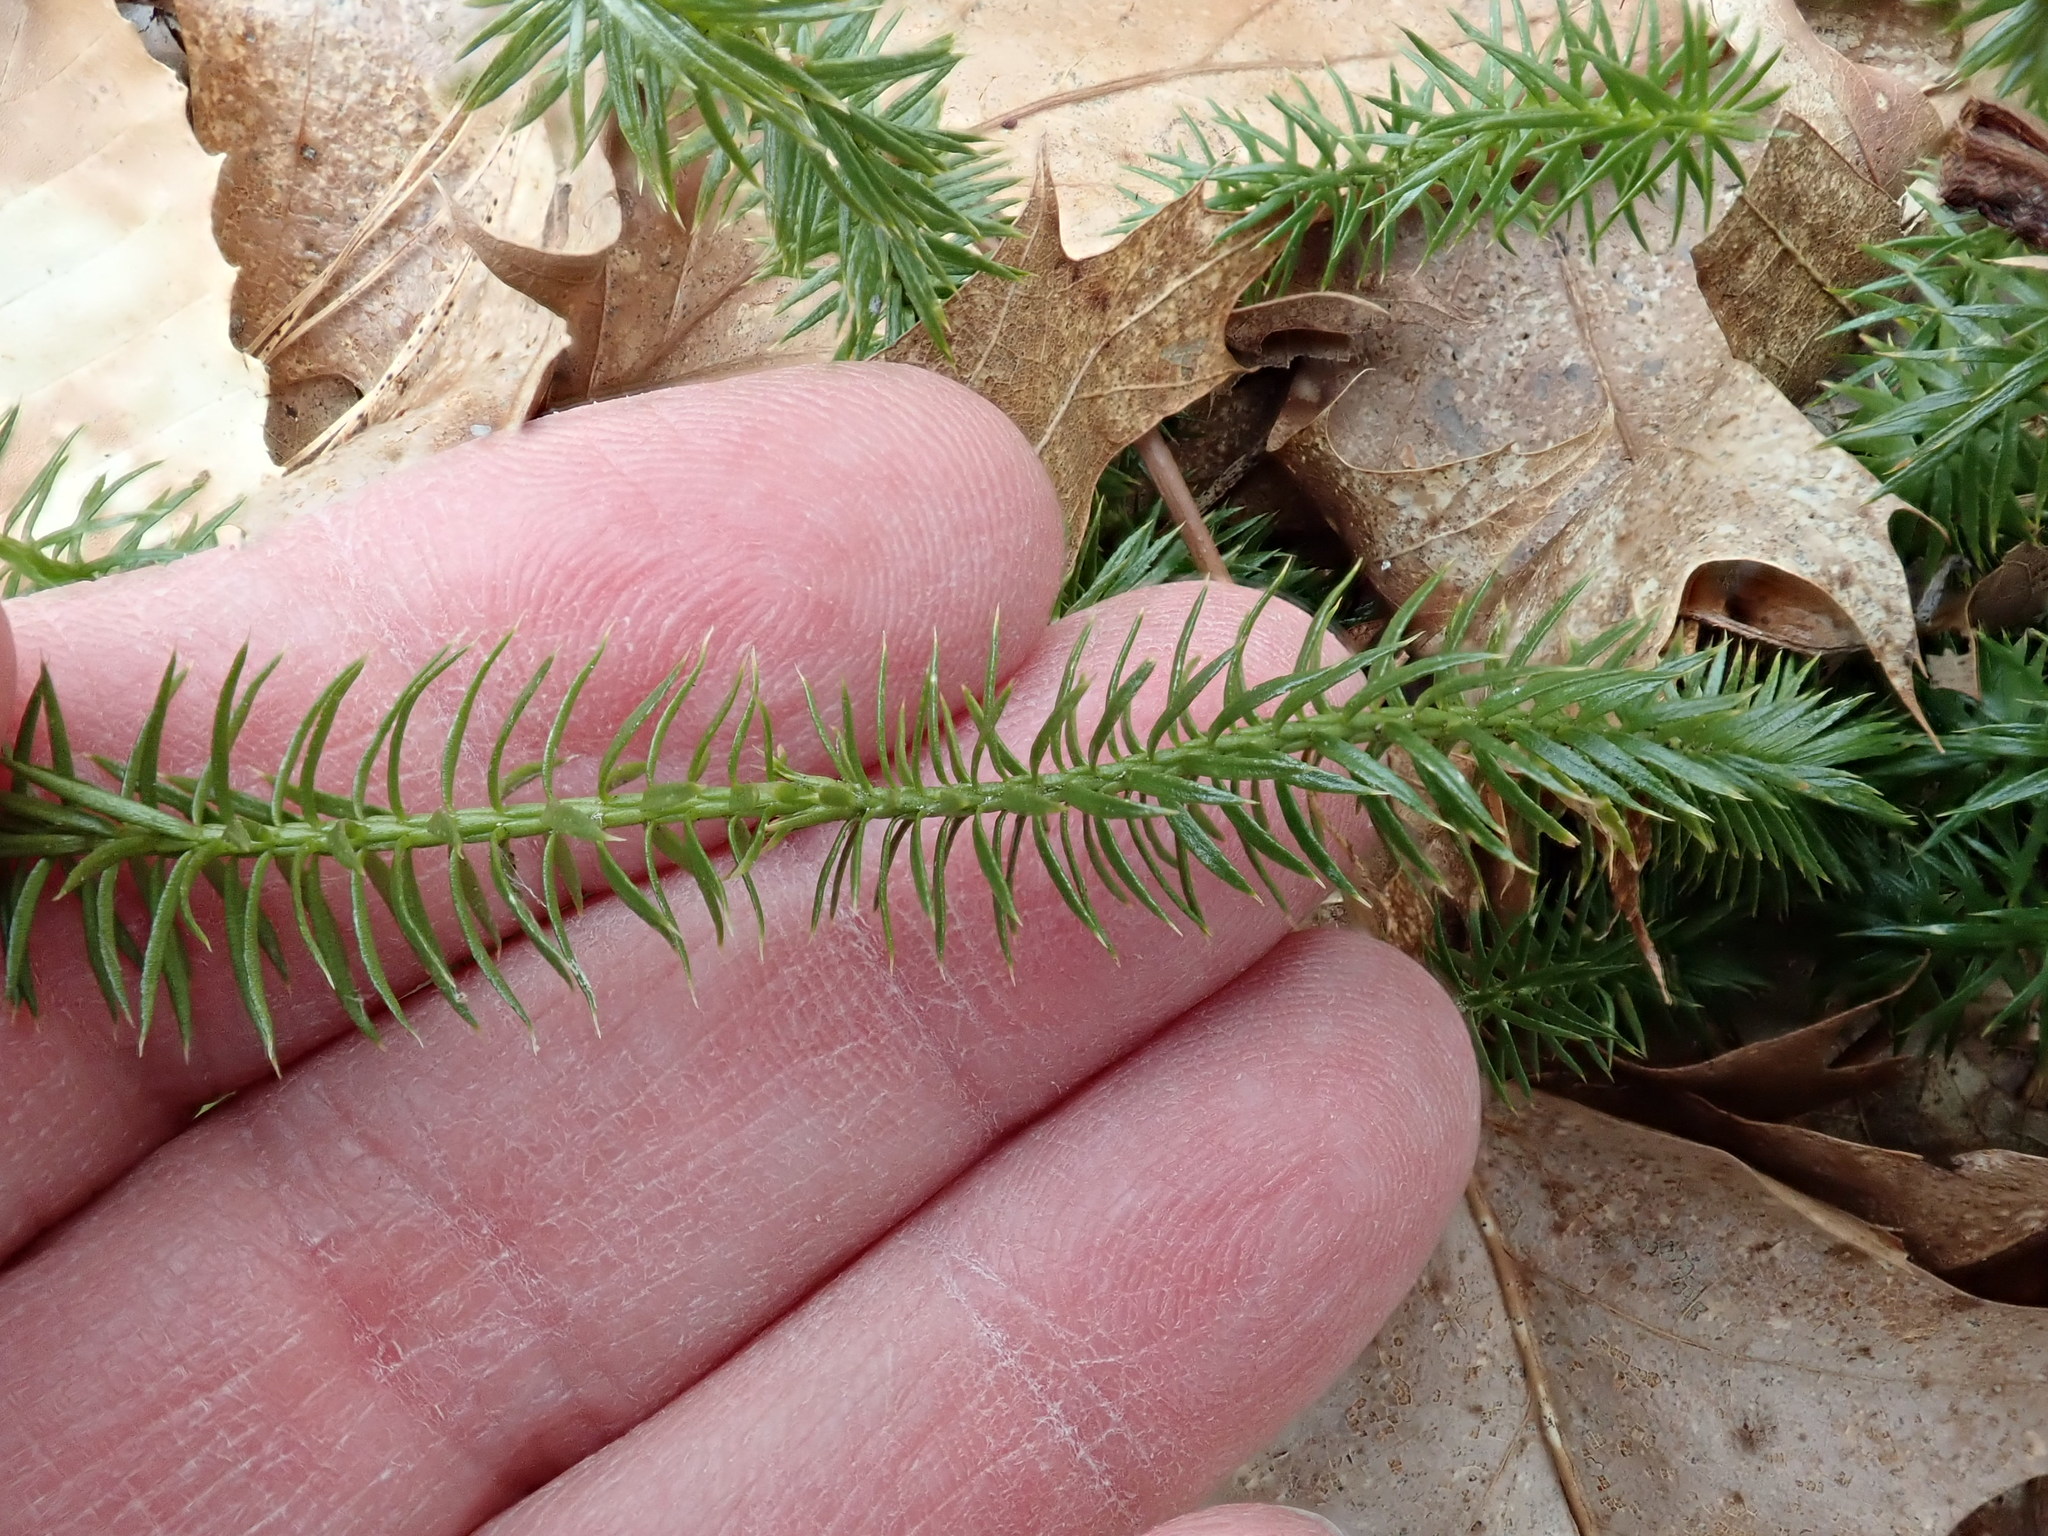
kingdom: Plantae
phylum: Tracheophyta
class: Lycopodiopsida
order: Lycopodiales
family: Lycopodiaceae
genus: Spinulum
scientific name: Spinulum annotinum
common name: Interrupted club-moss
